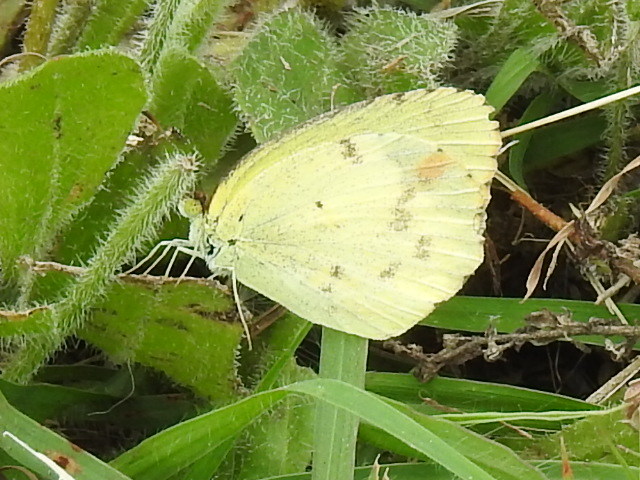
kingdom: Animalia
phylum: Arthropoda
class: Insecta
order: Lepidoptera
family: Pieridae
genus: Pyrisitia
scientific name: Pyrisitia lisa
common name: Little yellow
